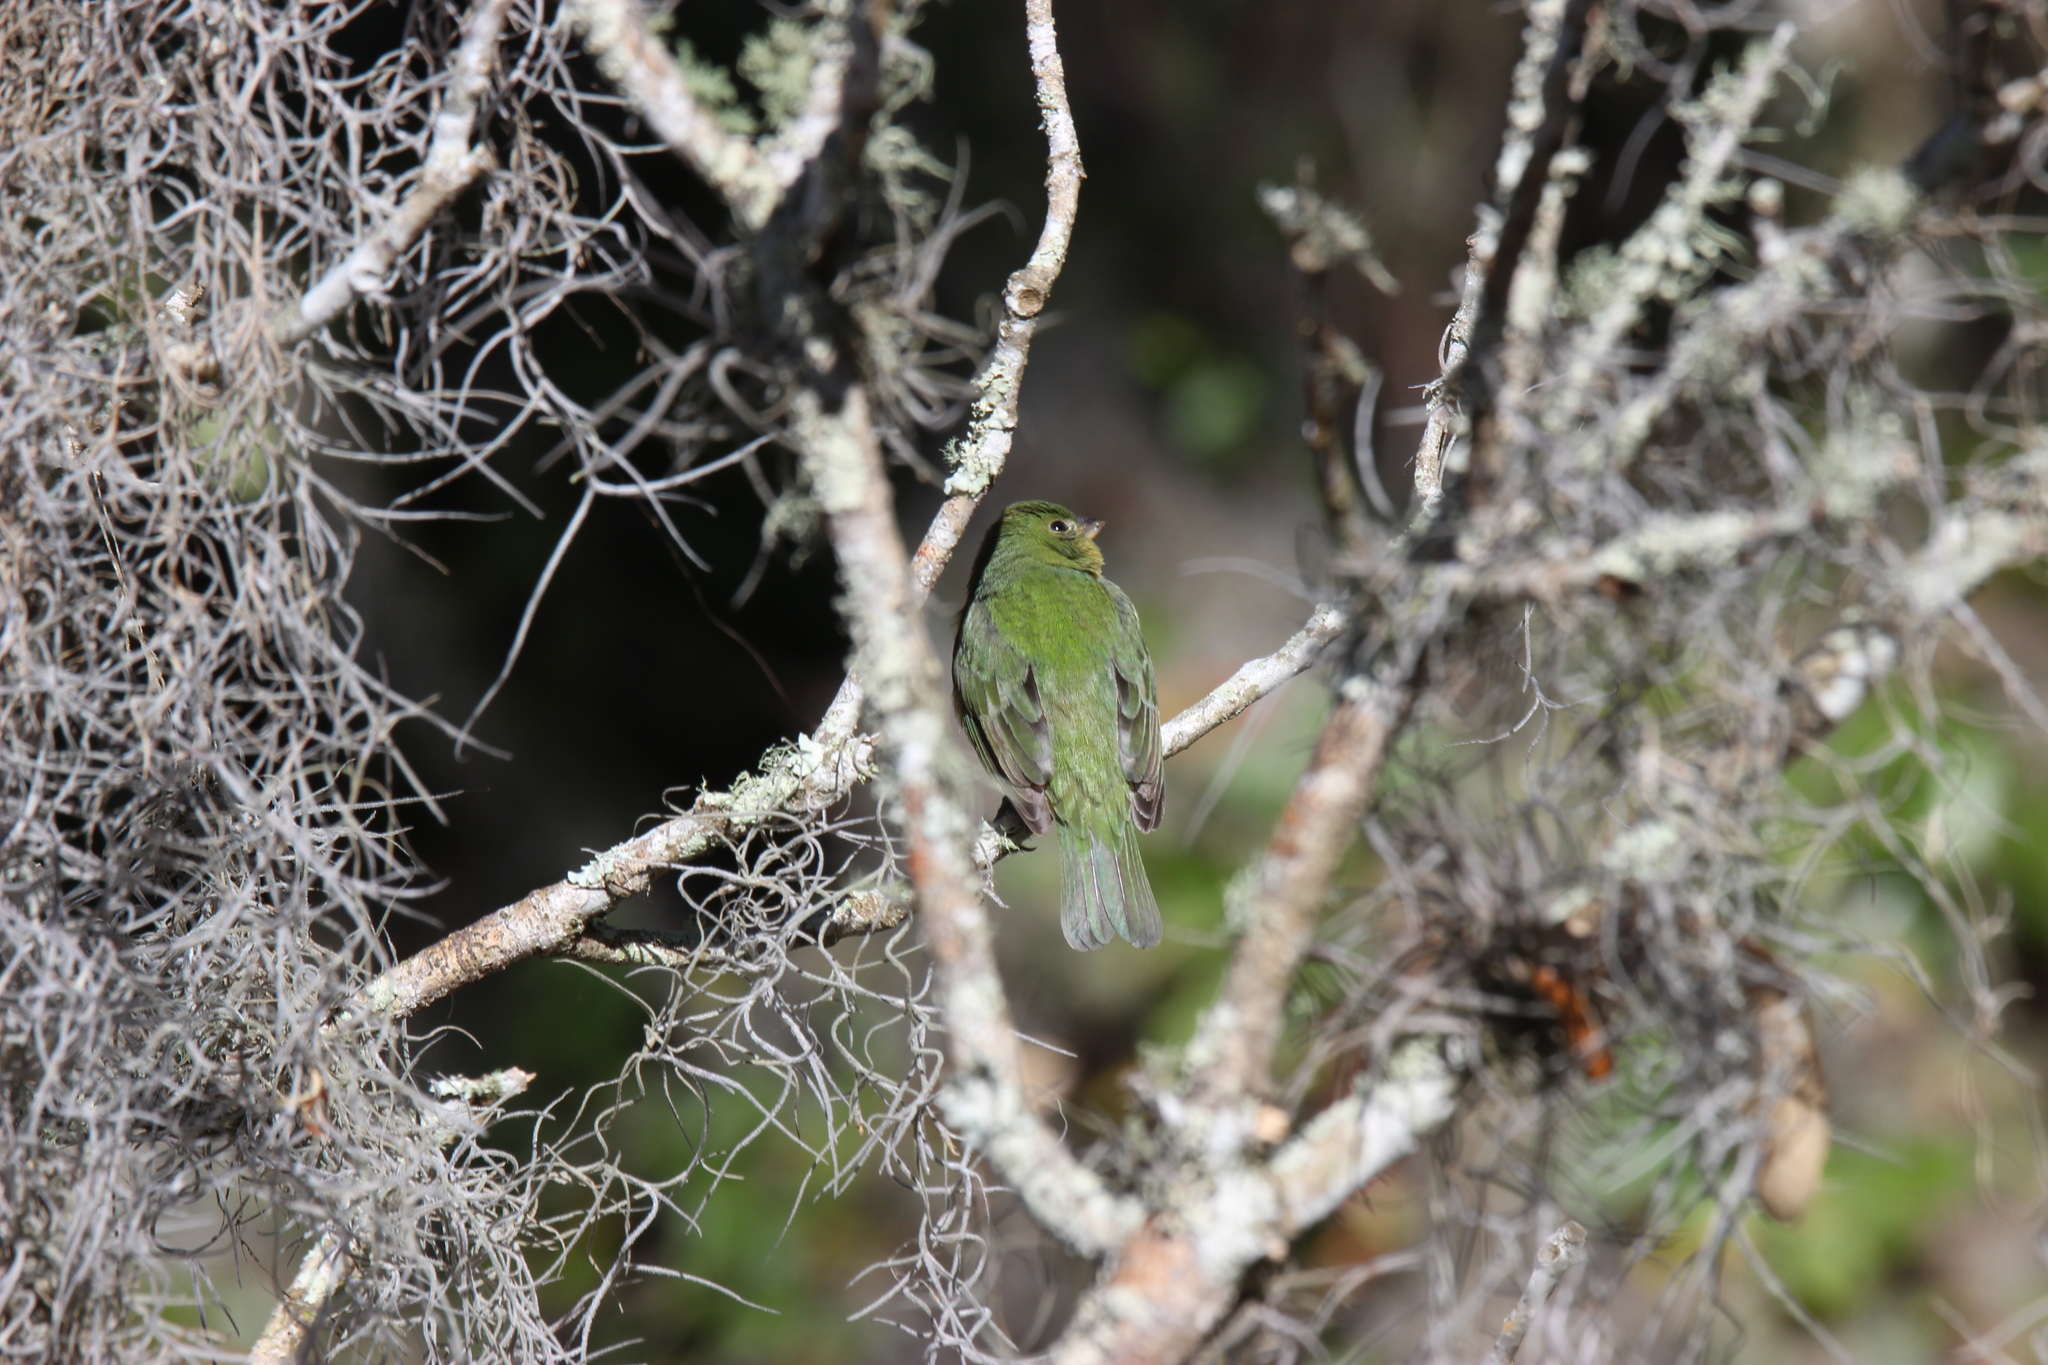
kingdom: Animalia
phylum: Chordata
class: Aves
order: Passeriformes
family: Cardinalidae
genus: Passerina
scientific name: Passerina ciris
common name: Painted bunting
